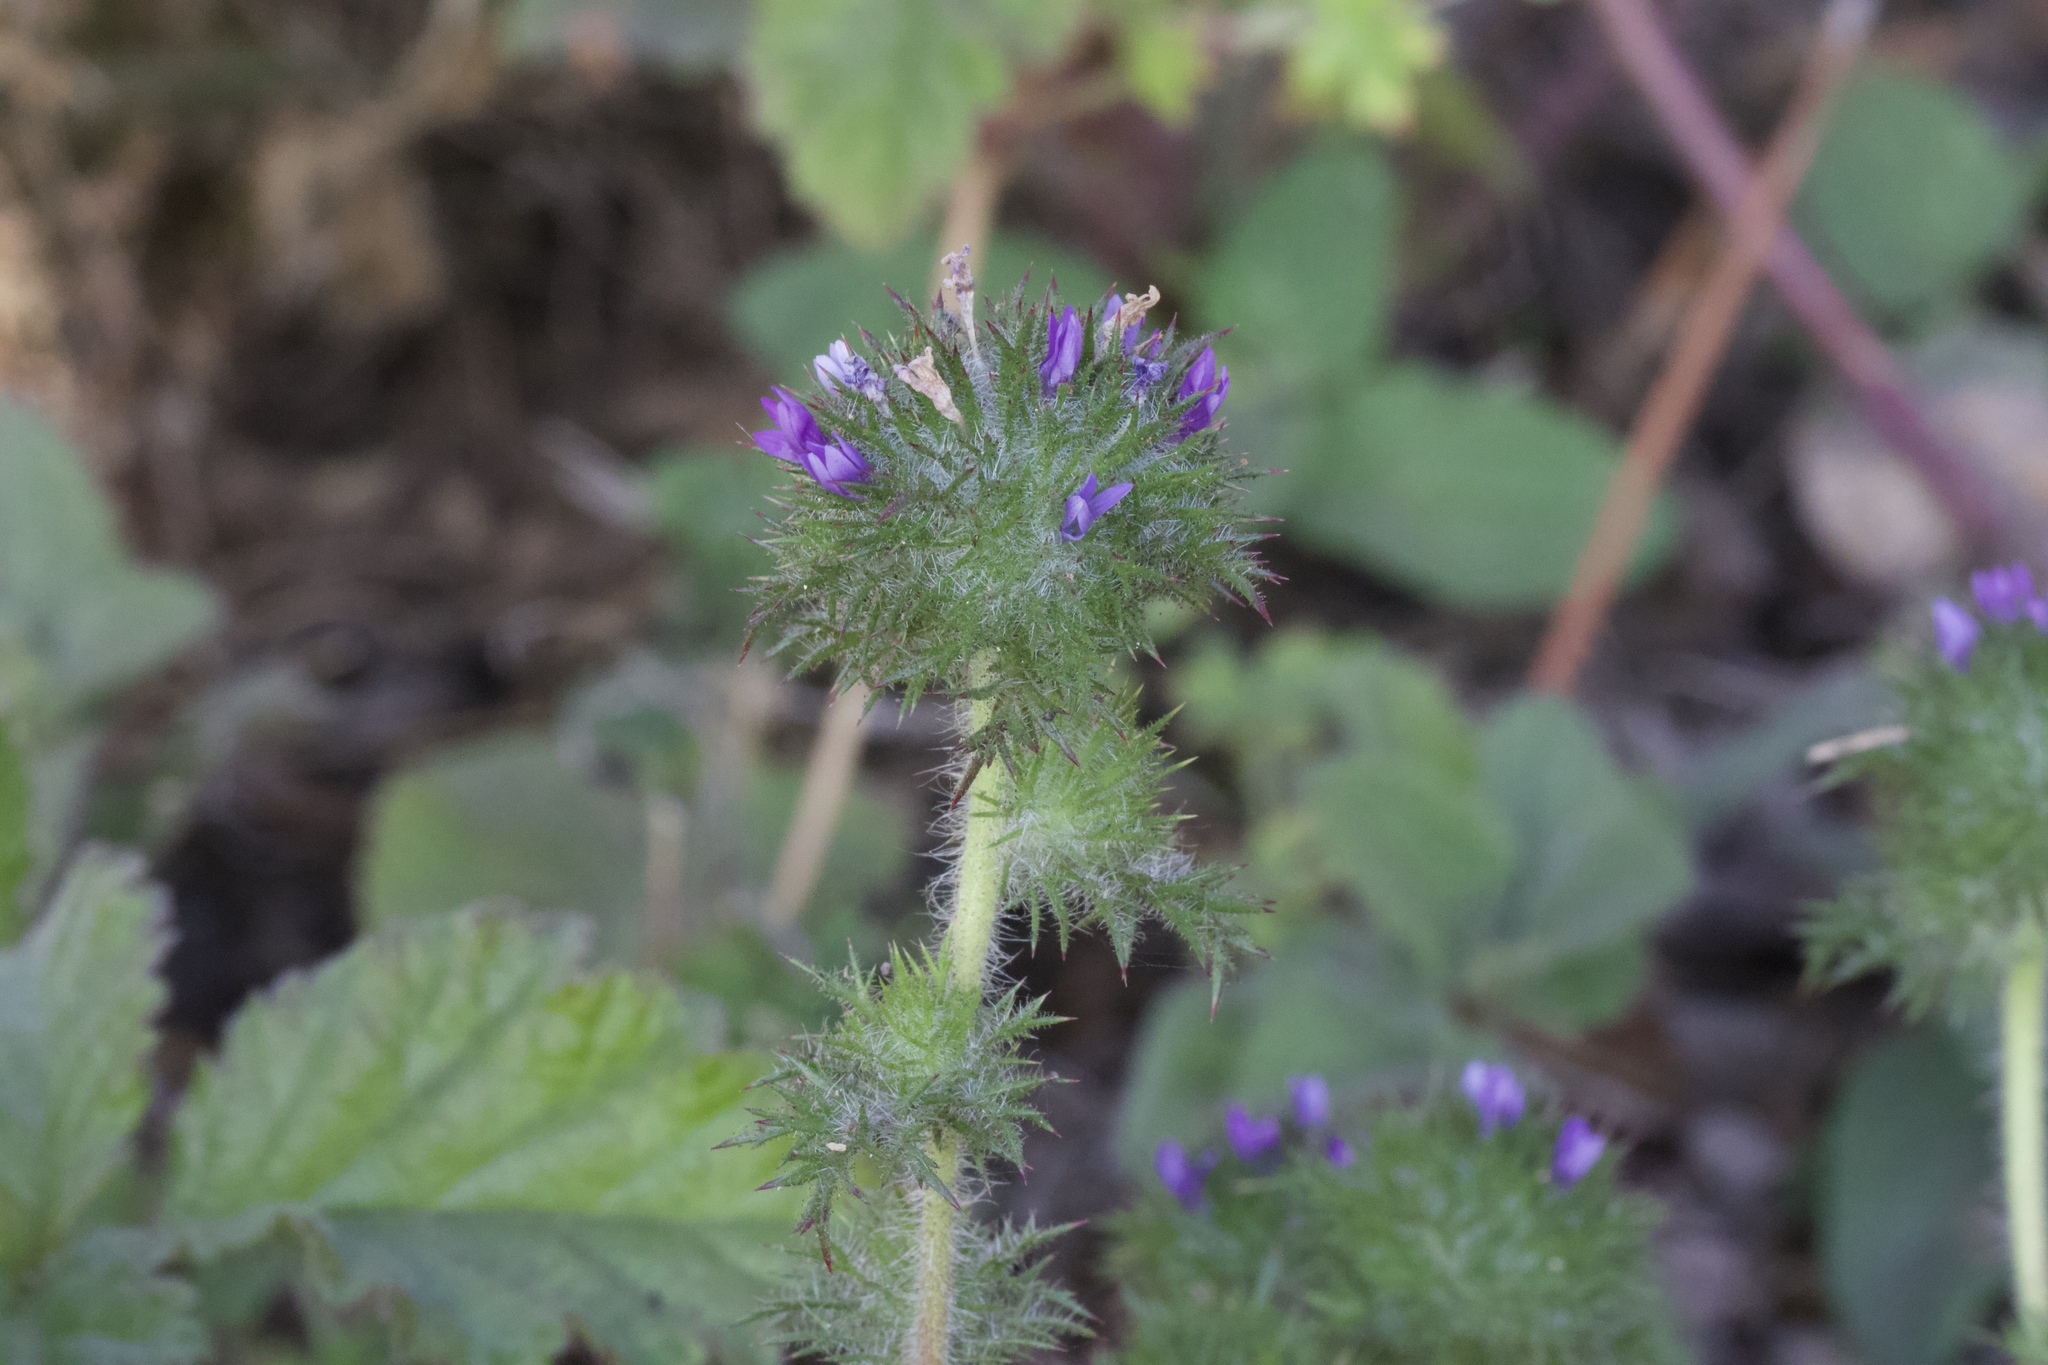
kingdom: Plantae
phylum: Tracheophyta
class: Magnoliopsida
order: Ericales
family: Polemoniaceae
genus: Navarretia
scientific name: Navarretia squarrosa
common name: Skunkweed
